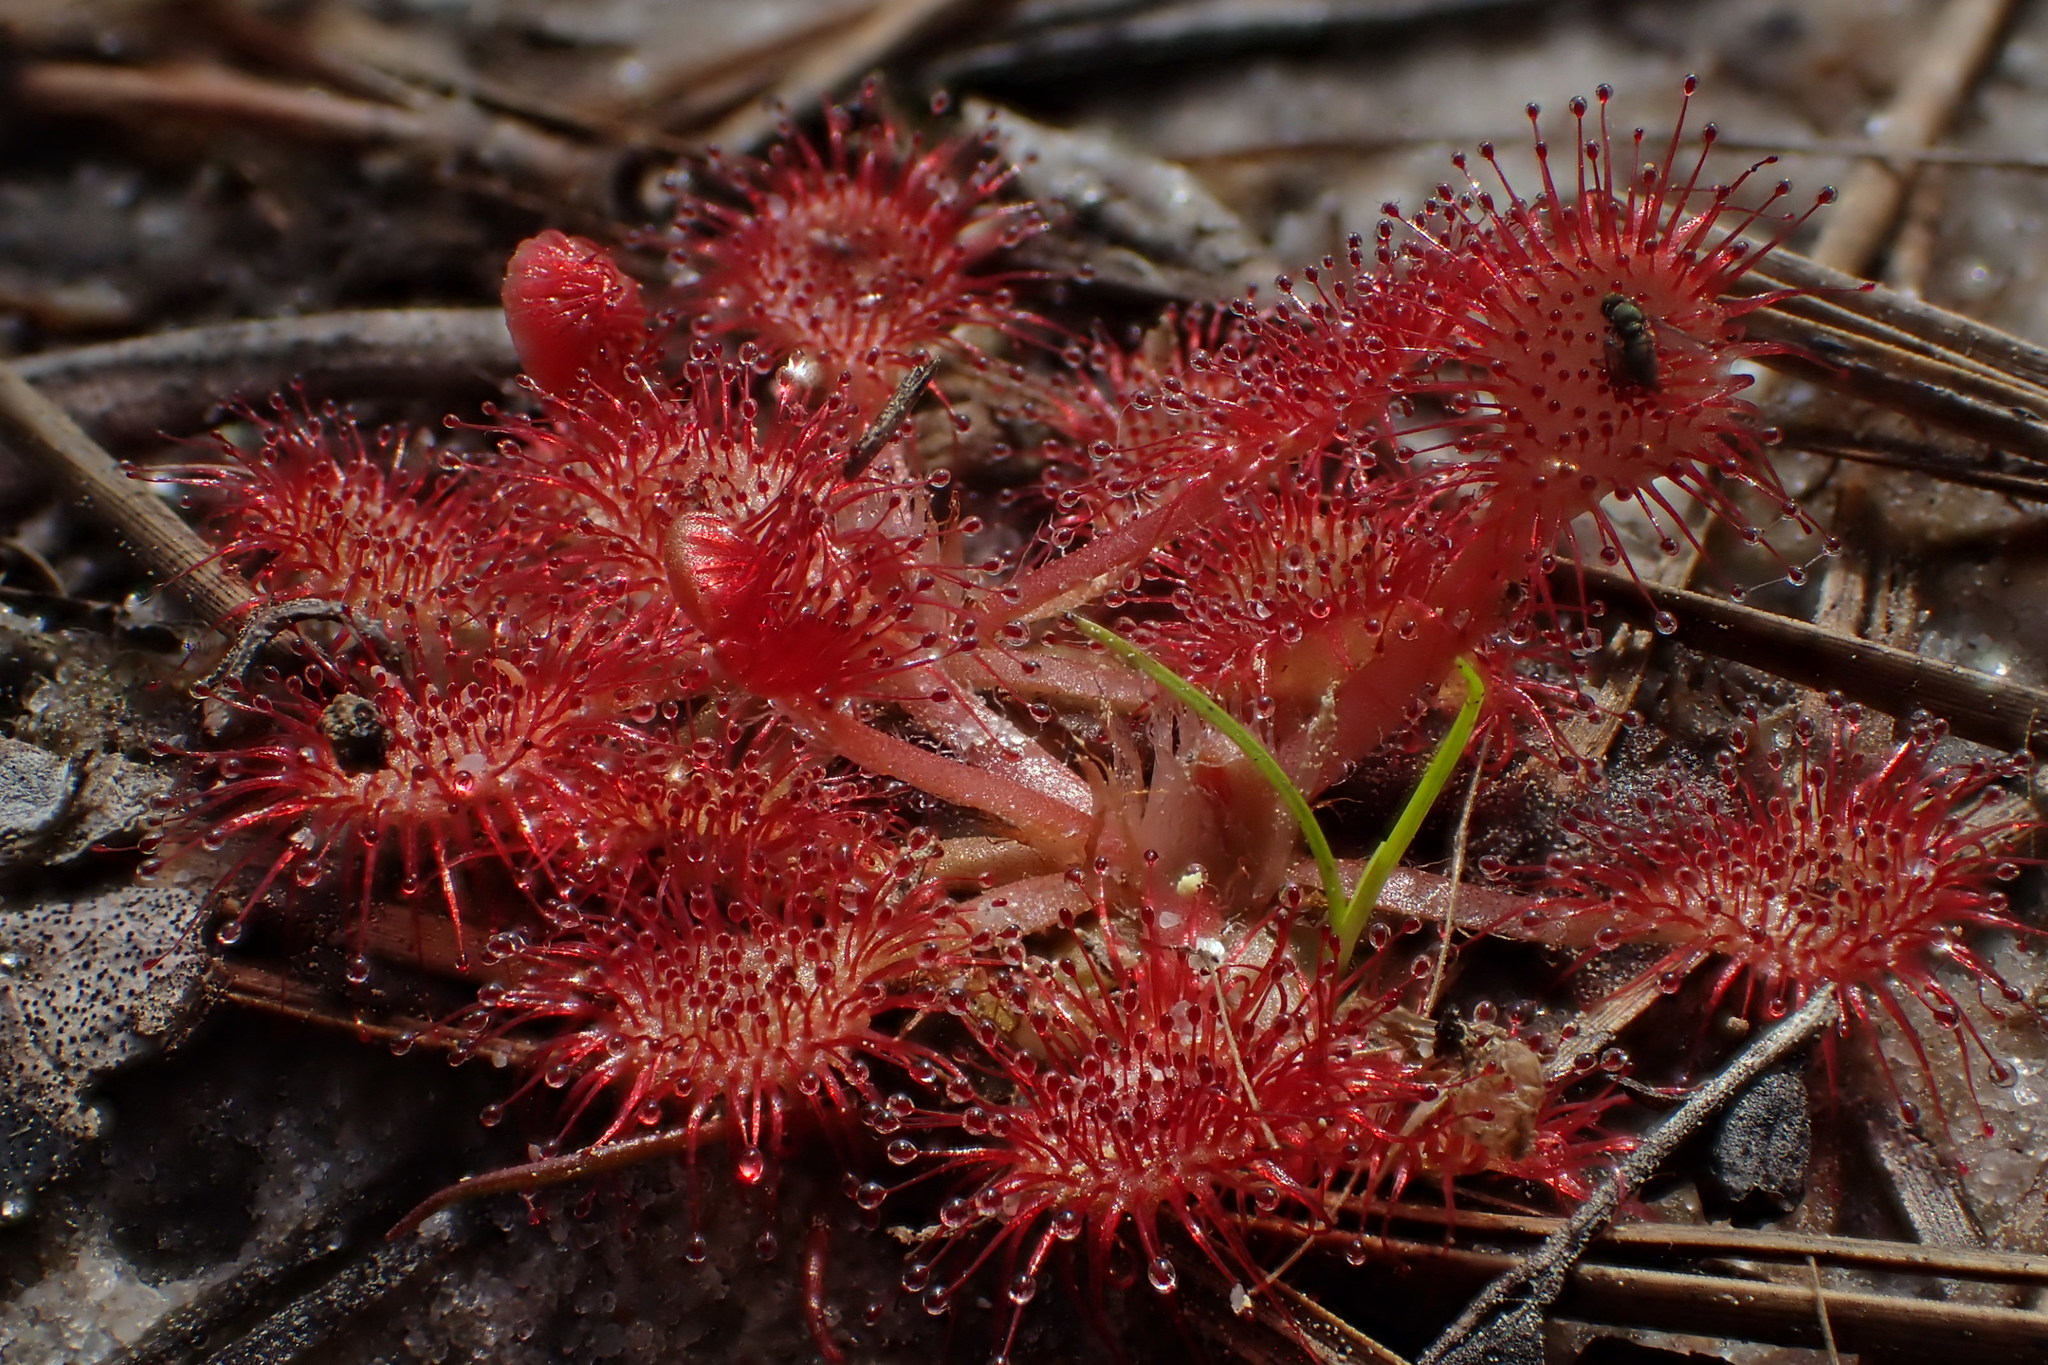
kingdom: Plantae
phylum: Tracheophyta
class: Magnoliopsida
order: Caryophyllales
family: Droseraceae
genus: Drosera
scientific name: Drosera capillaris
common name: Pink sundew
